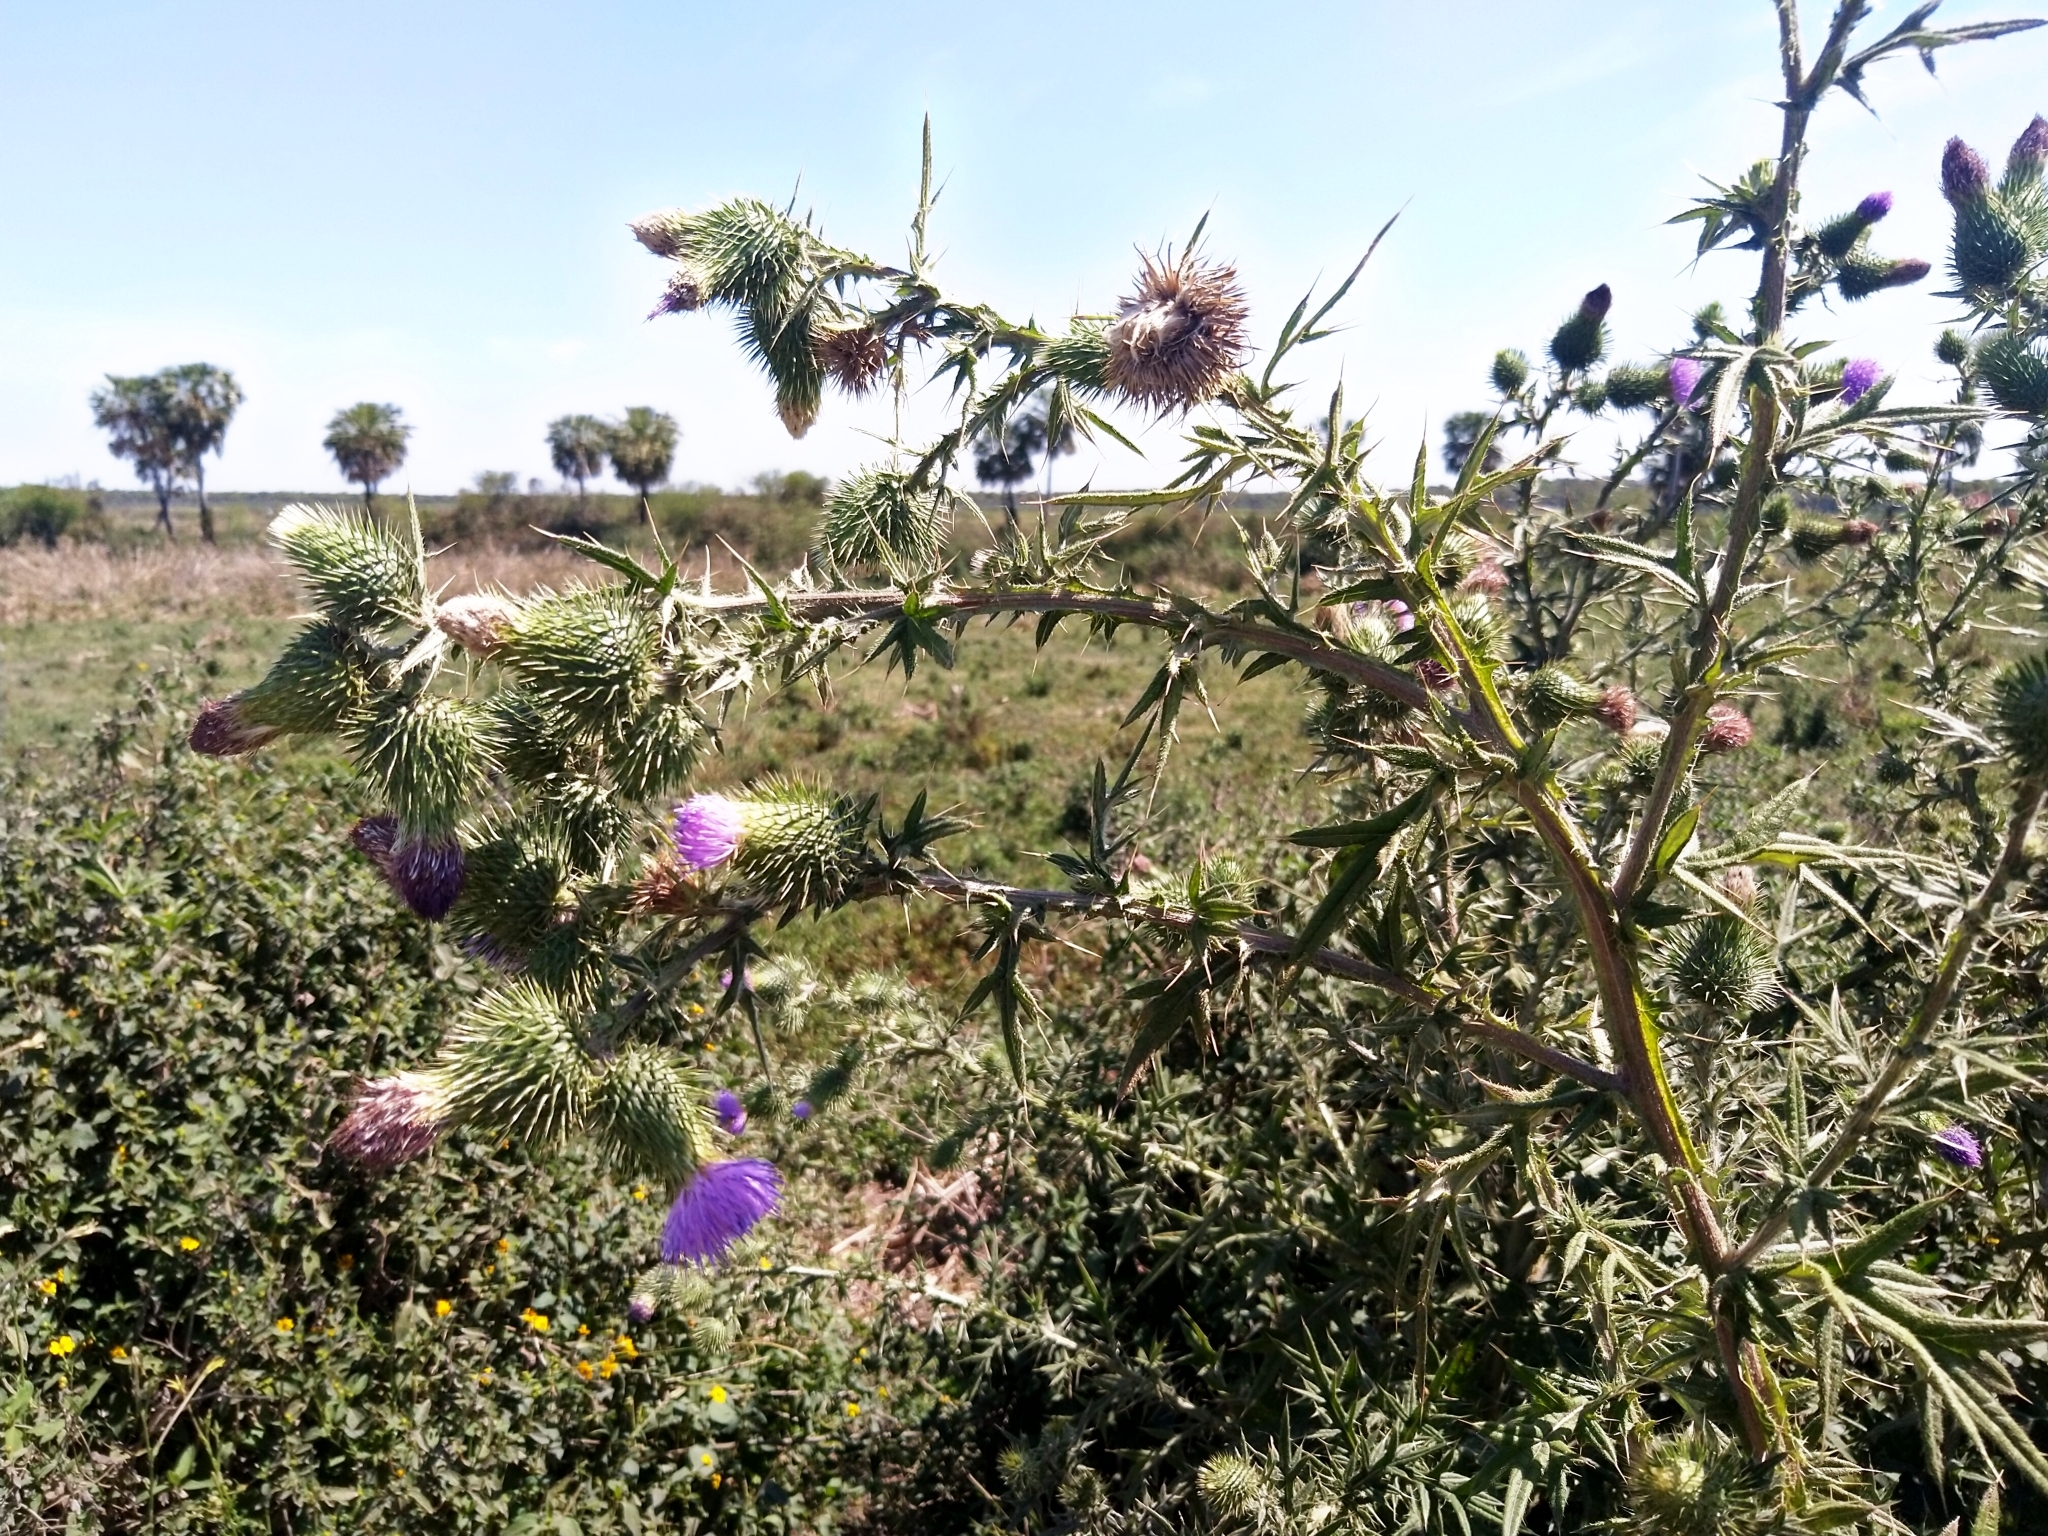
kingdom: Plantae
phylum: Tracheophyta
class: Magnoliopsida
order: Asterales
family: Asteraceae
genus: Cirsium
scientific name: Cirsium vulgare
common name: Bull thistle
